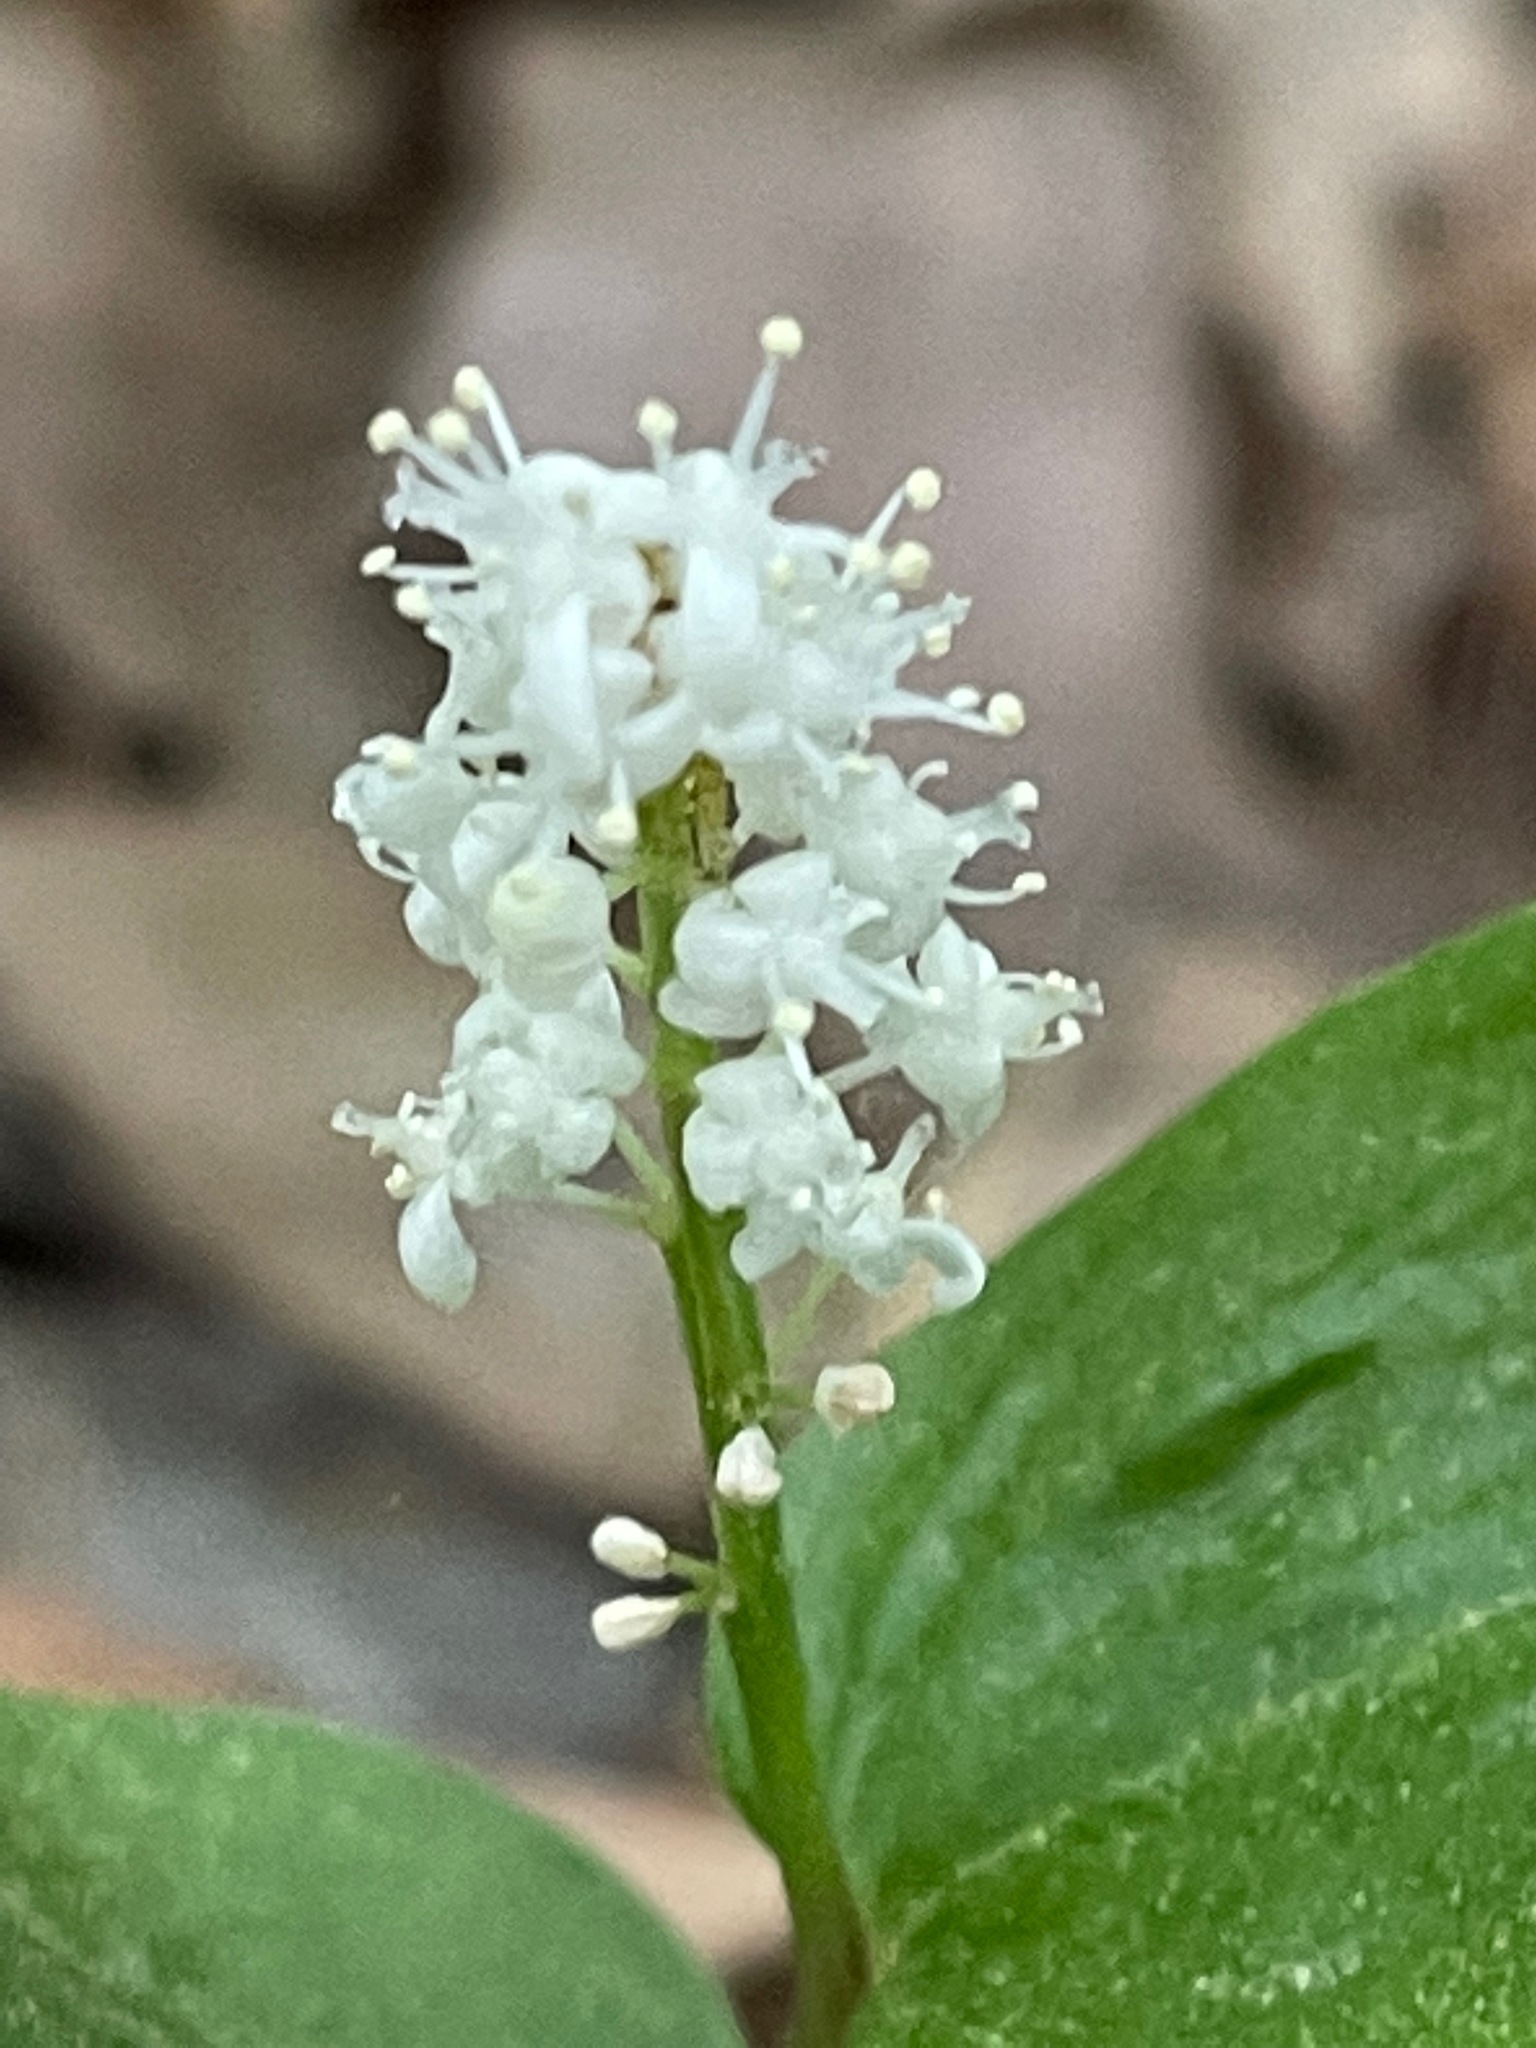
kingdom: Plantae
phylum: Tracheophyta
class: Liliopsida
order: Asparagales
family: Asparagaceae
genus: Maianthemum
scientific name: Maianthemum canadense
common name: False lily-of-the-valley
